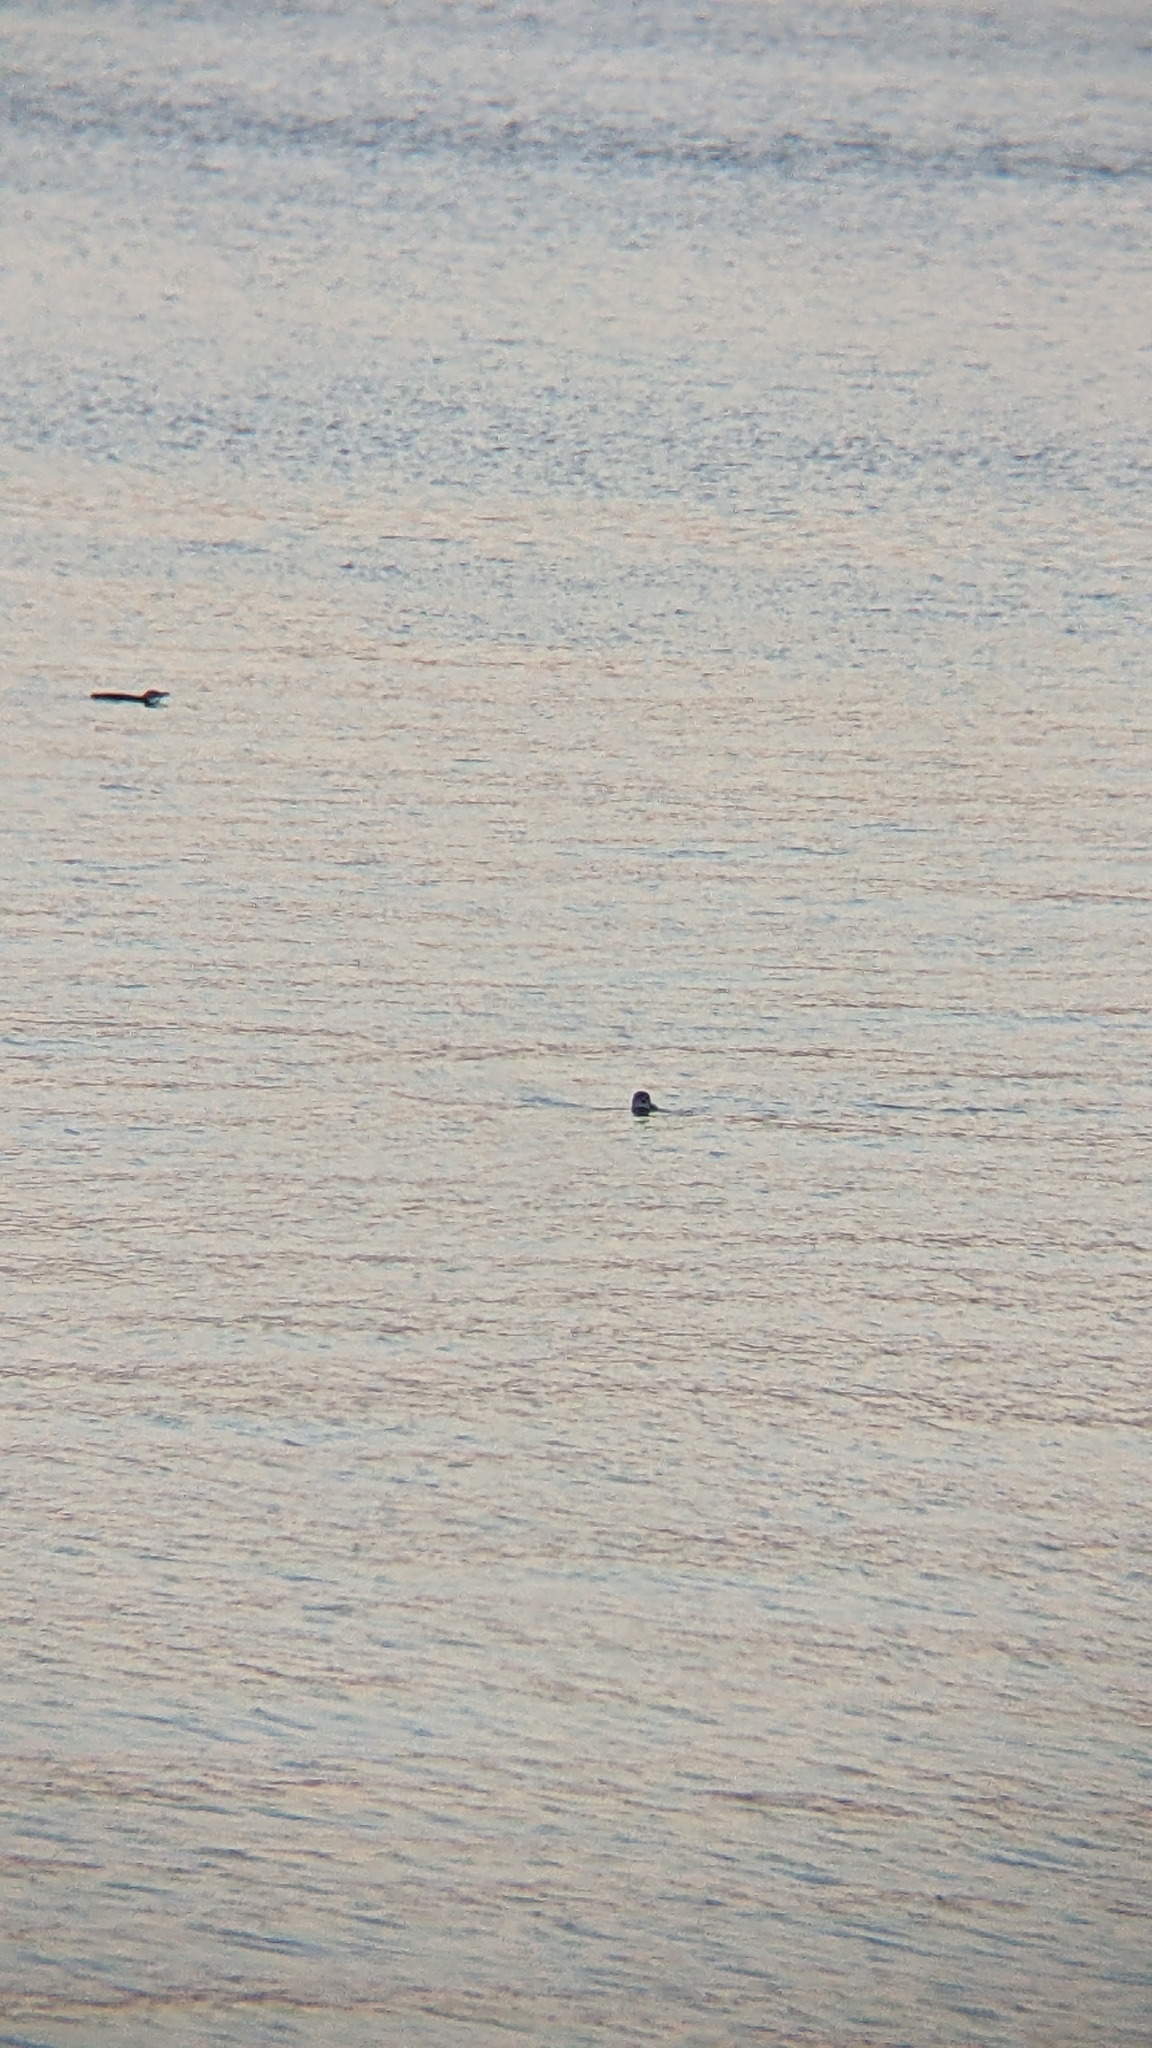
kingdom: Animalia
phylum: Chordata
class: Aves
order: Sphenisciformes
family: Spheniscidae
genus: Eudyptula
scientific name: Eudyptula minor
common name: Little penguin
